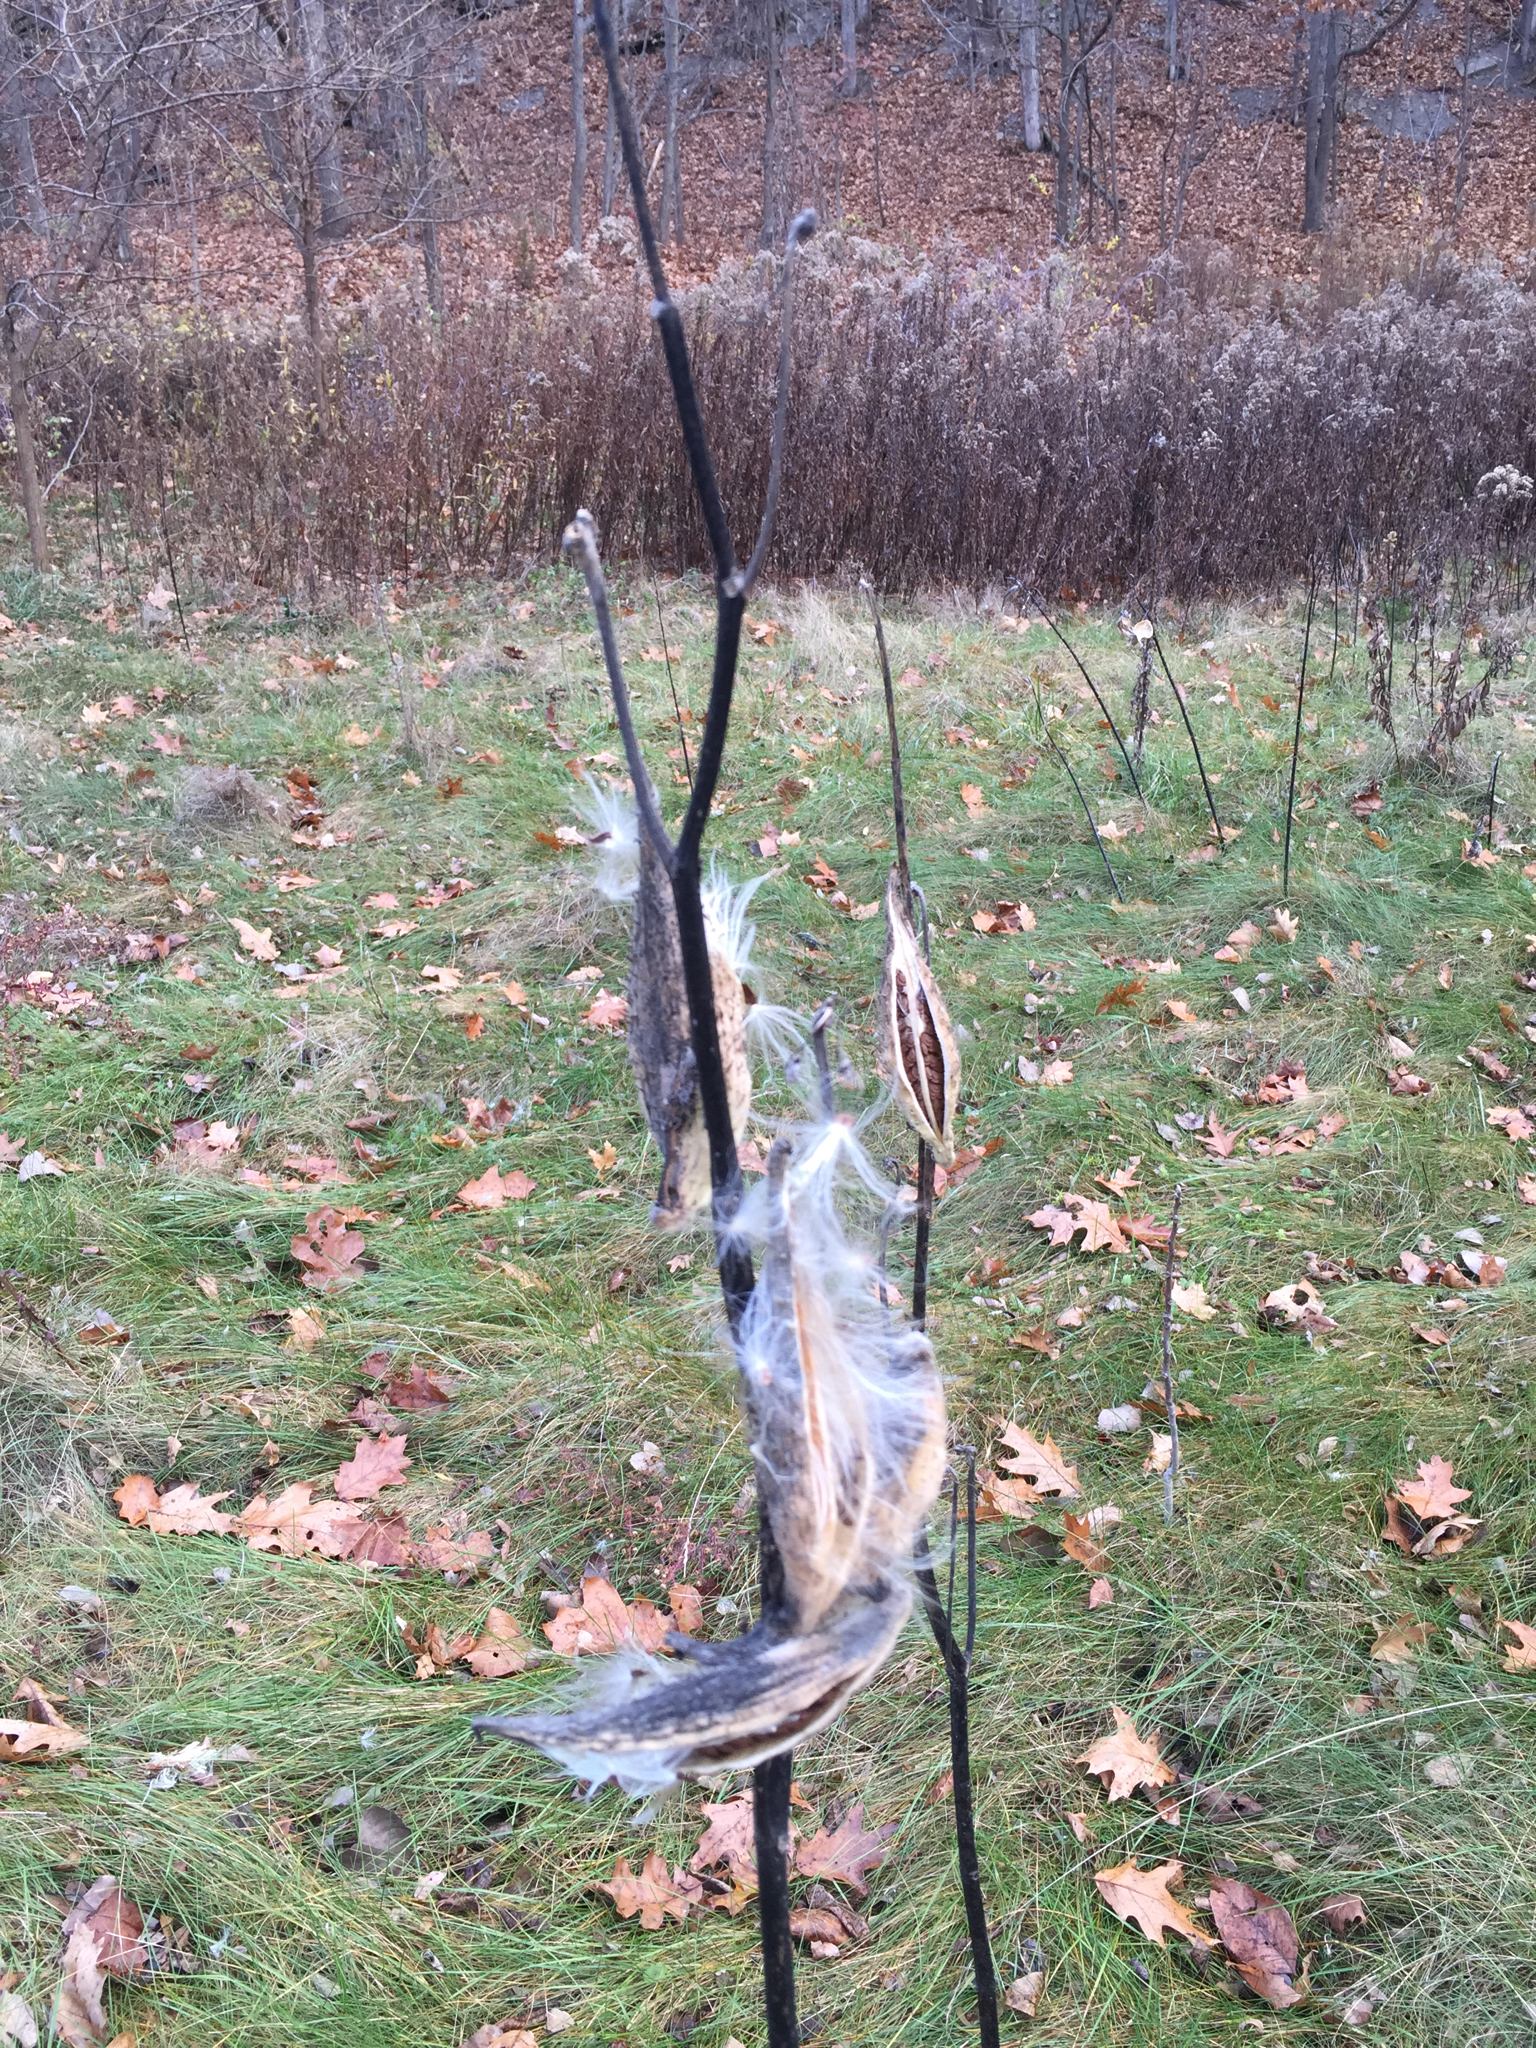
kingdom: Plantae
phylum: Tracheophyta
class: Magnoliopsida
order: Gentianales
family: Apocynaceae
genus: Asclepias
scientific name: Asclepias syriaca
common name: Common milkweed
